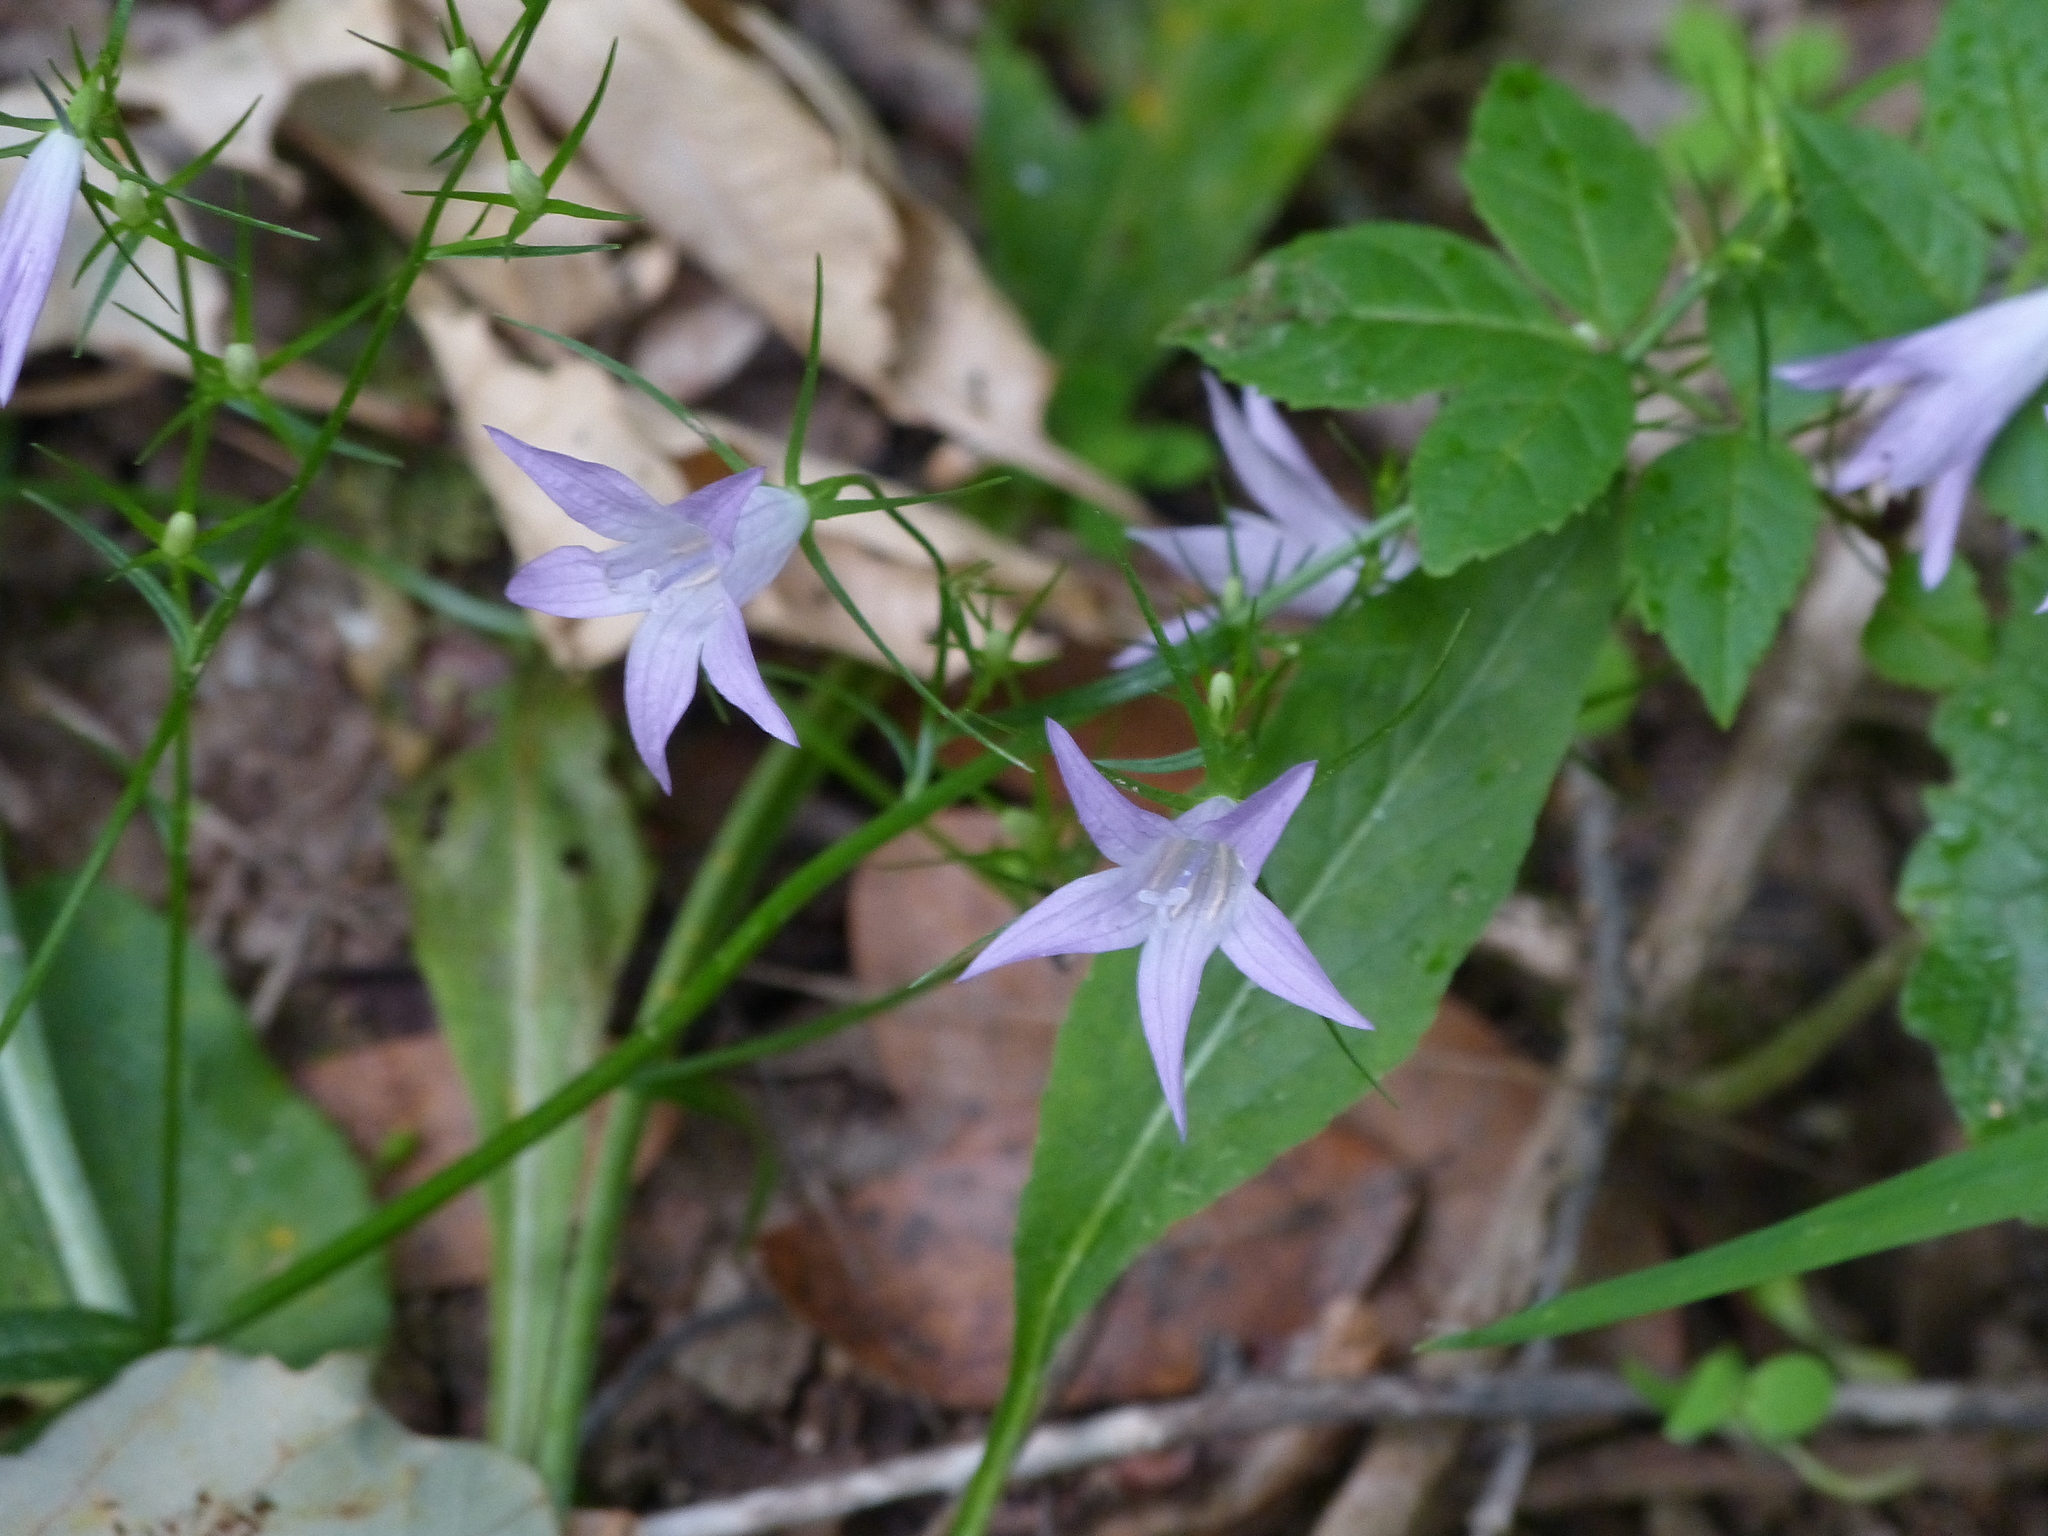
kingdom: Plantae
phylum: Tracheophyta
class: Magnoliopsida
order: Asterales
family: Campanulaceae
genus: Campanula
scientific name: Campanula rapunculus
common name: Rampion bellflower
